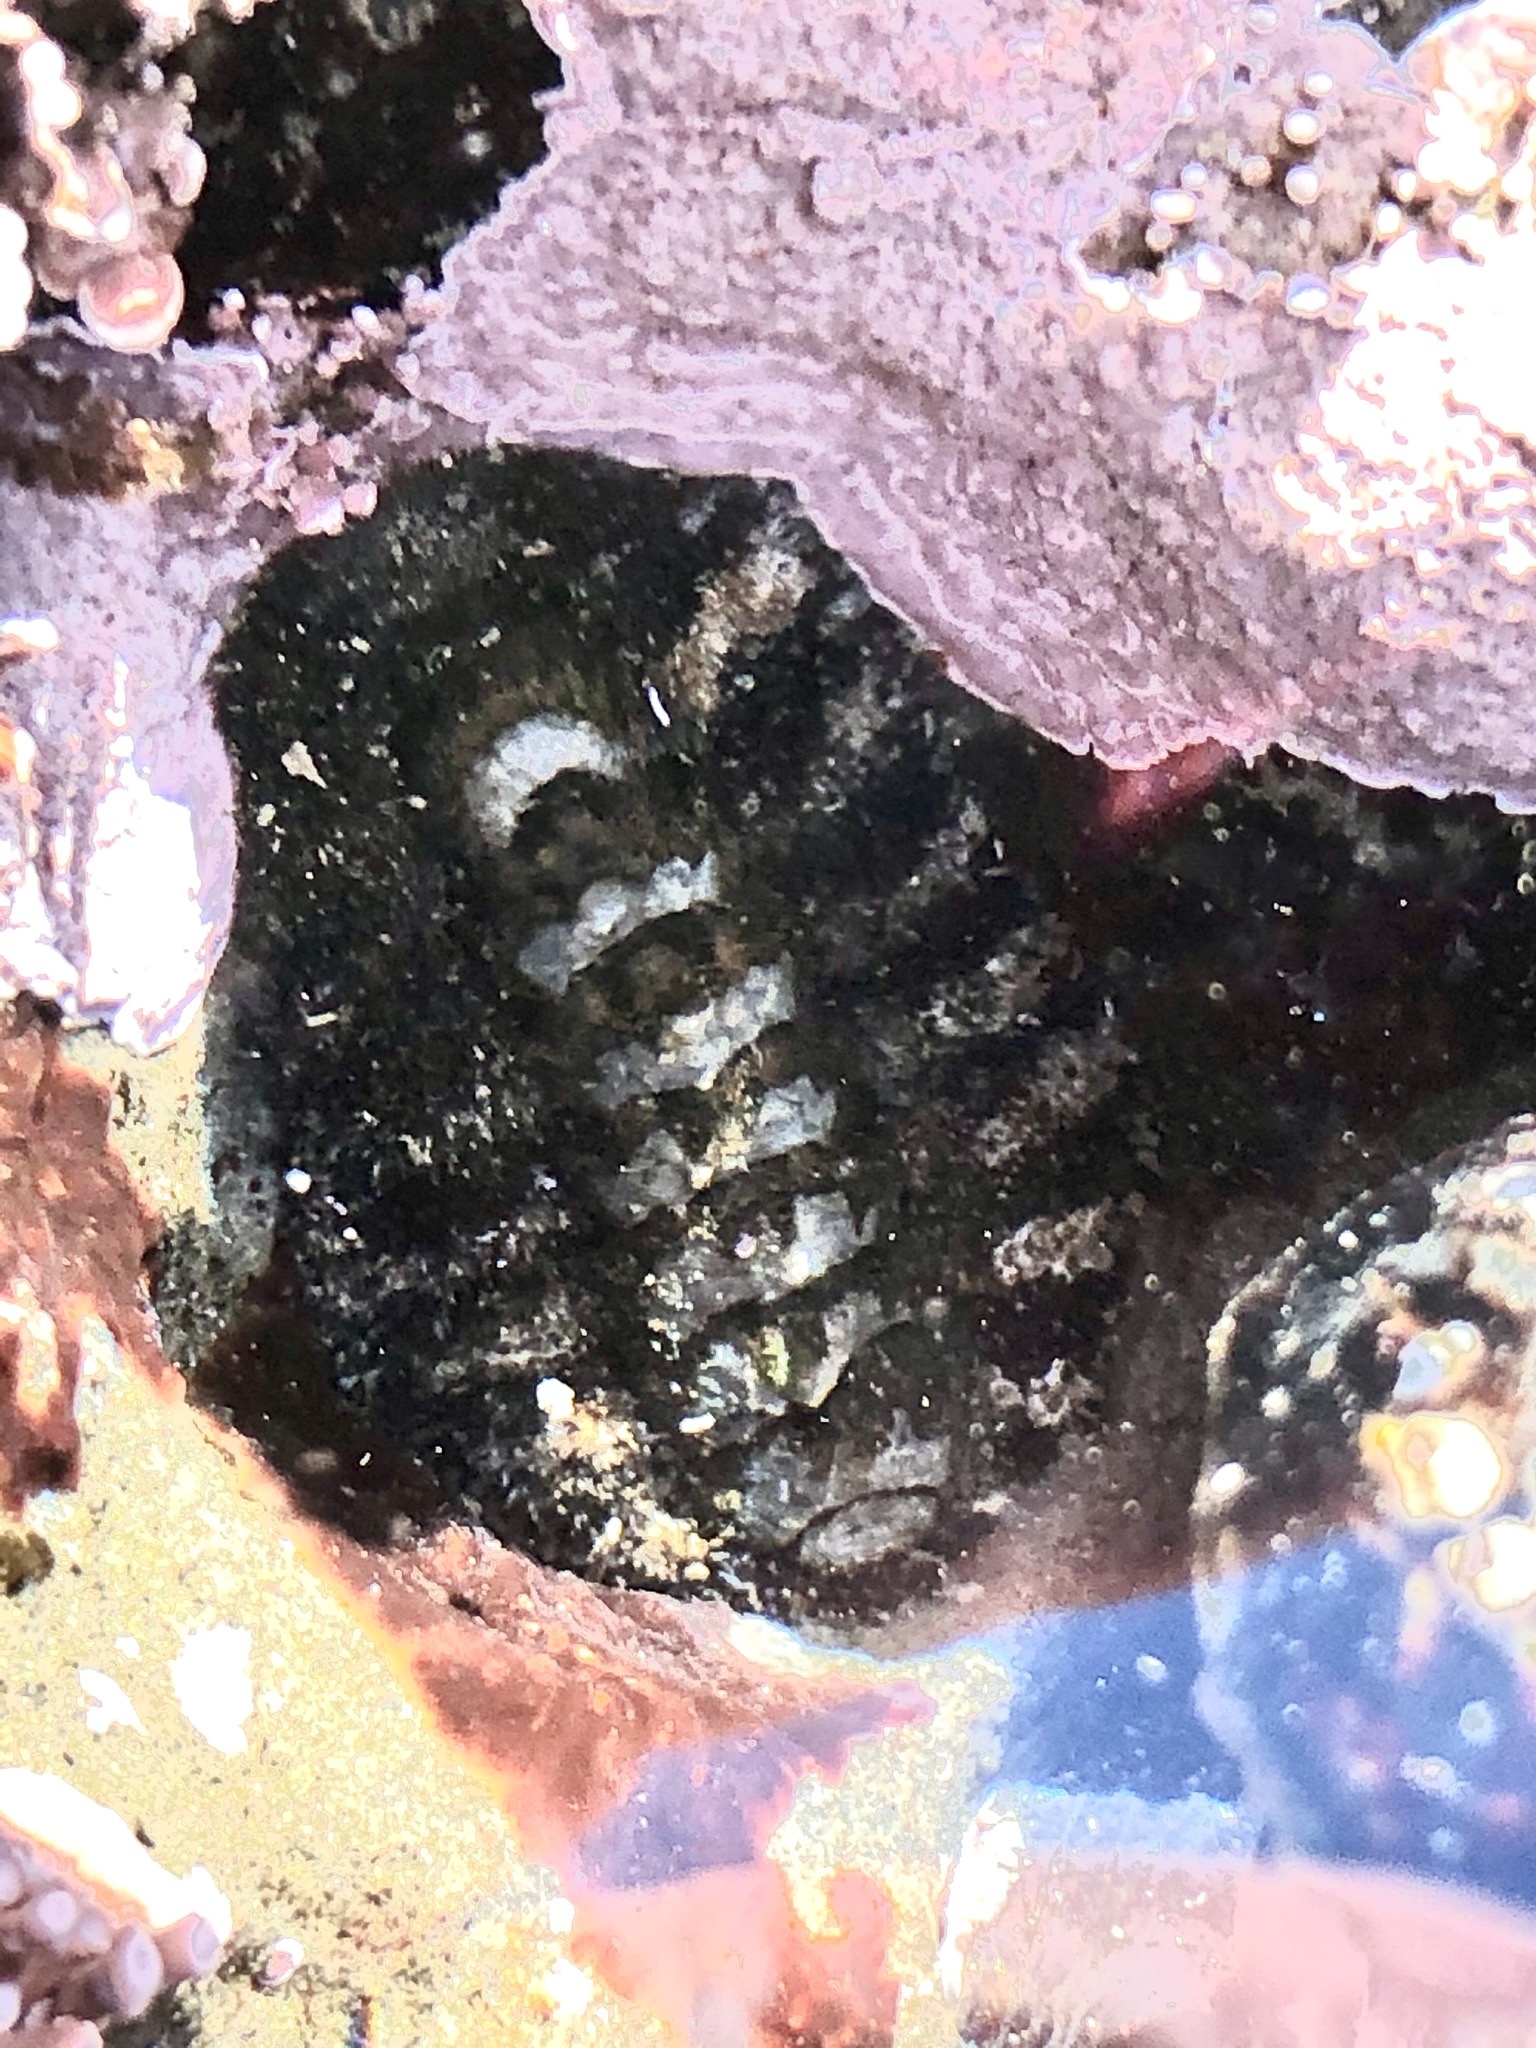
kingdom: Animalia
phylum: Mollusca
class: Polyplacophora
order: Chitonida
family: Tonicellidae
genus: Nuttallina
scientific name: Nuttallina californica
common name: California nuttall chiton
